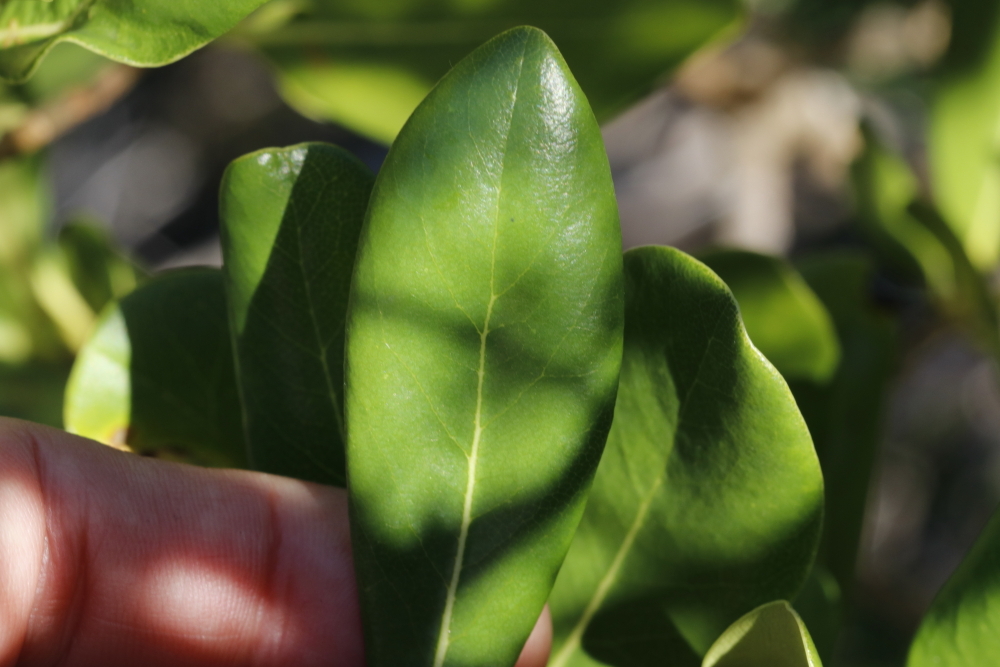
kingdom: Plantae
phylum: Tracheophyta
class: Magnoliopsida
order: Apiales
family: Pittosporaceae
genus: Pittosporum
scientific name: Pittosporum viridiflorum
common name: Cape cheesewood
